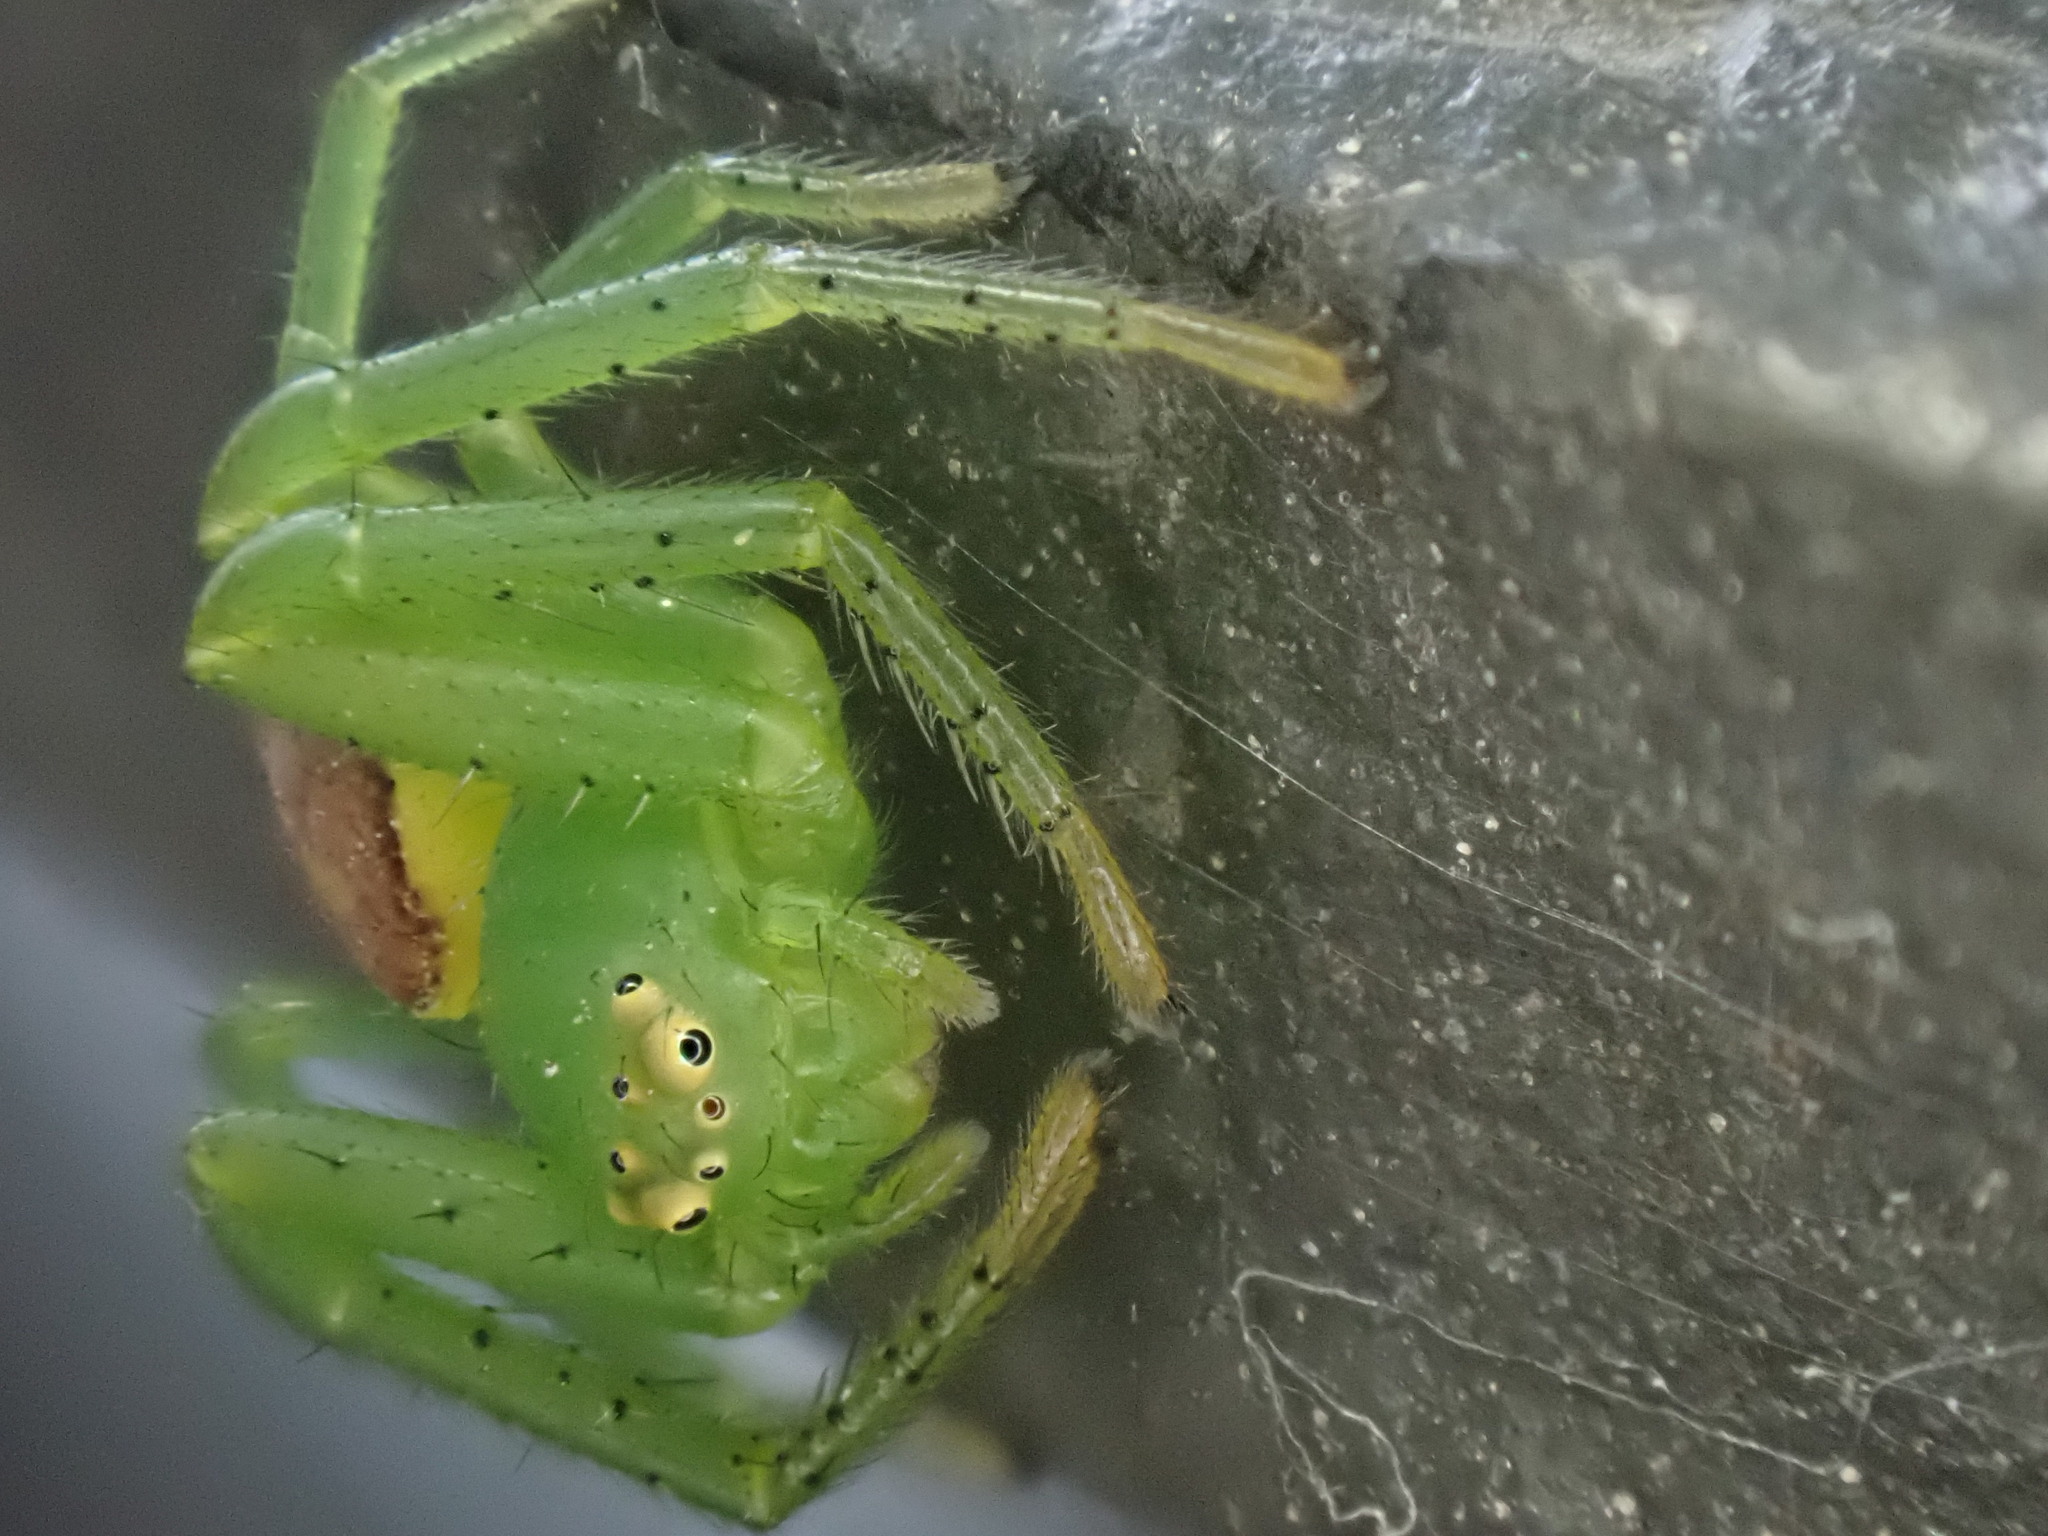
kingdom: Animalia
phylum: Arthropoda
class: Arachnida
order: Araneae
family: Thomisidae
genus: Diaea
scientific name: Diaea dorsata
